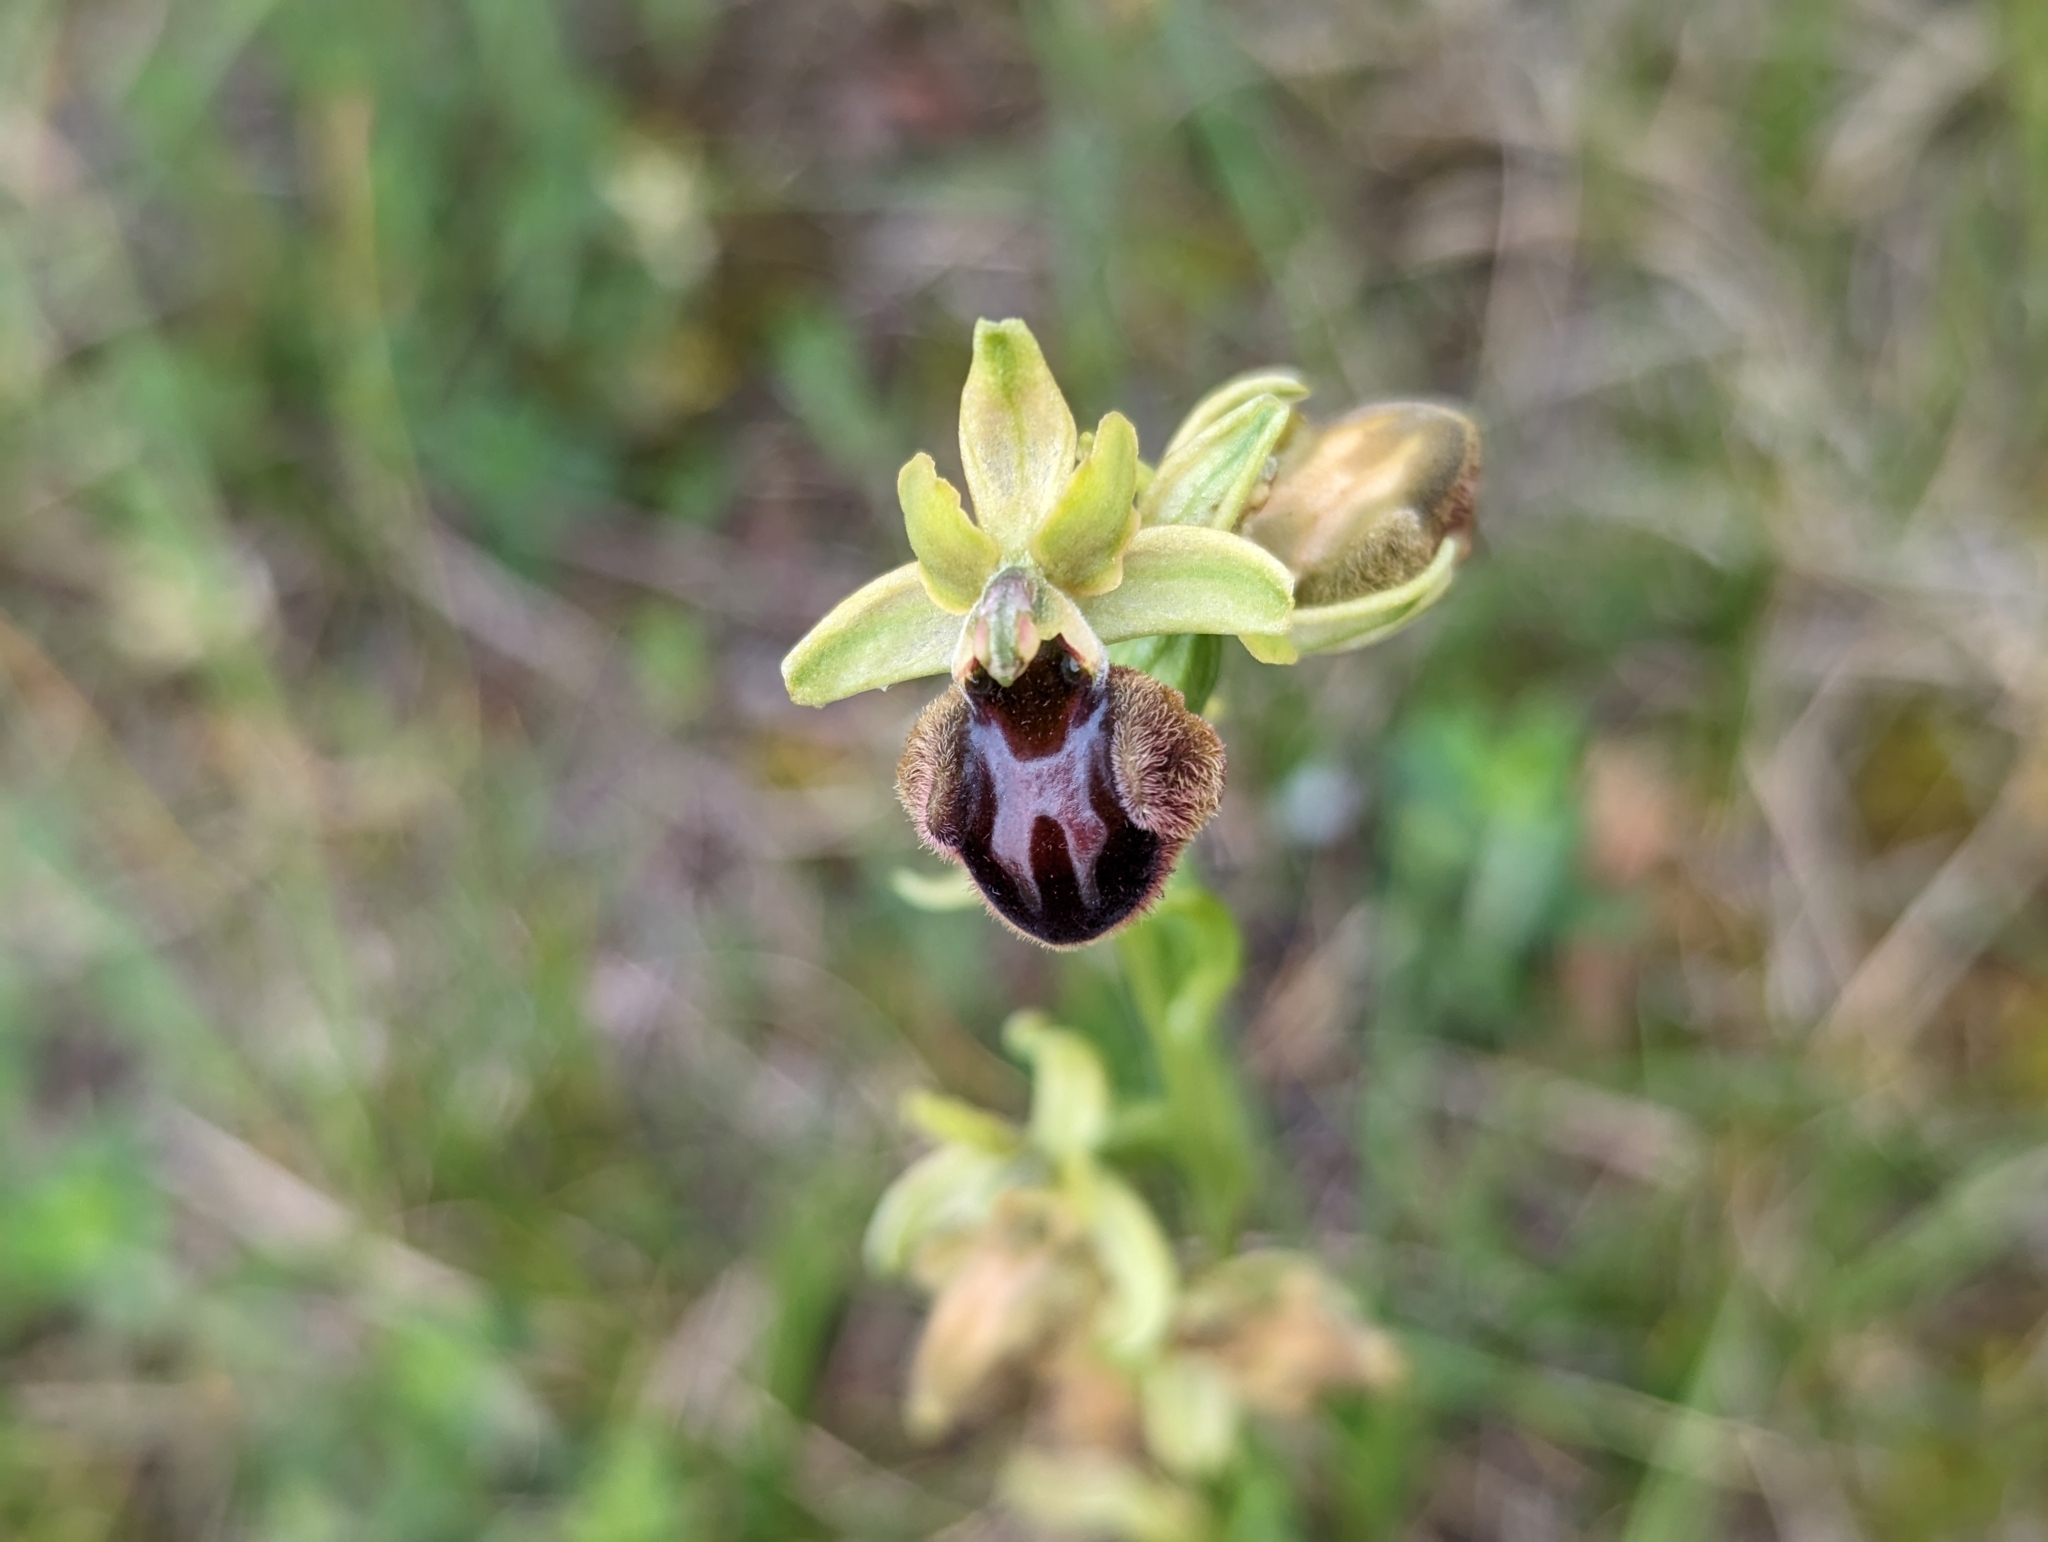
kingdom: Plantae
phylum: Tracheophyta
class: Liliopsida
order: Asparagales
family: Orchidaceae
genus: Ophrys
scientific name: Ophrys sphegodes
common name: Early spider-orchid
